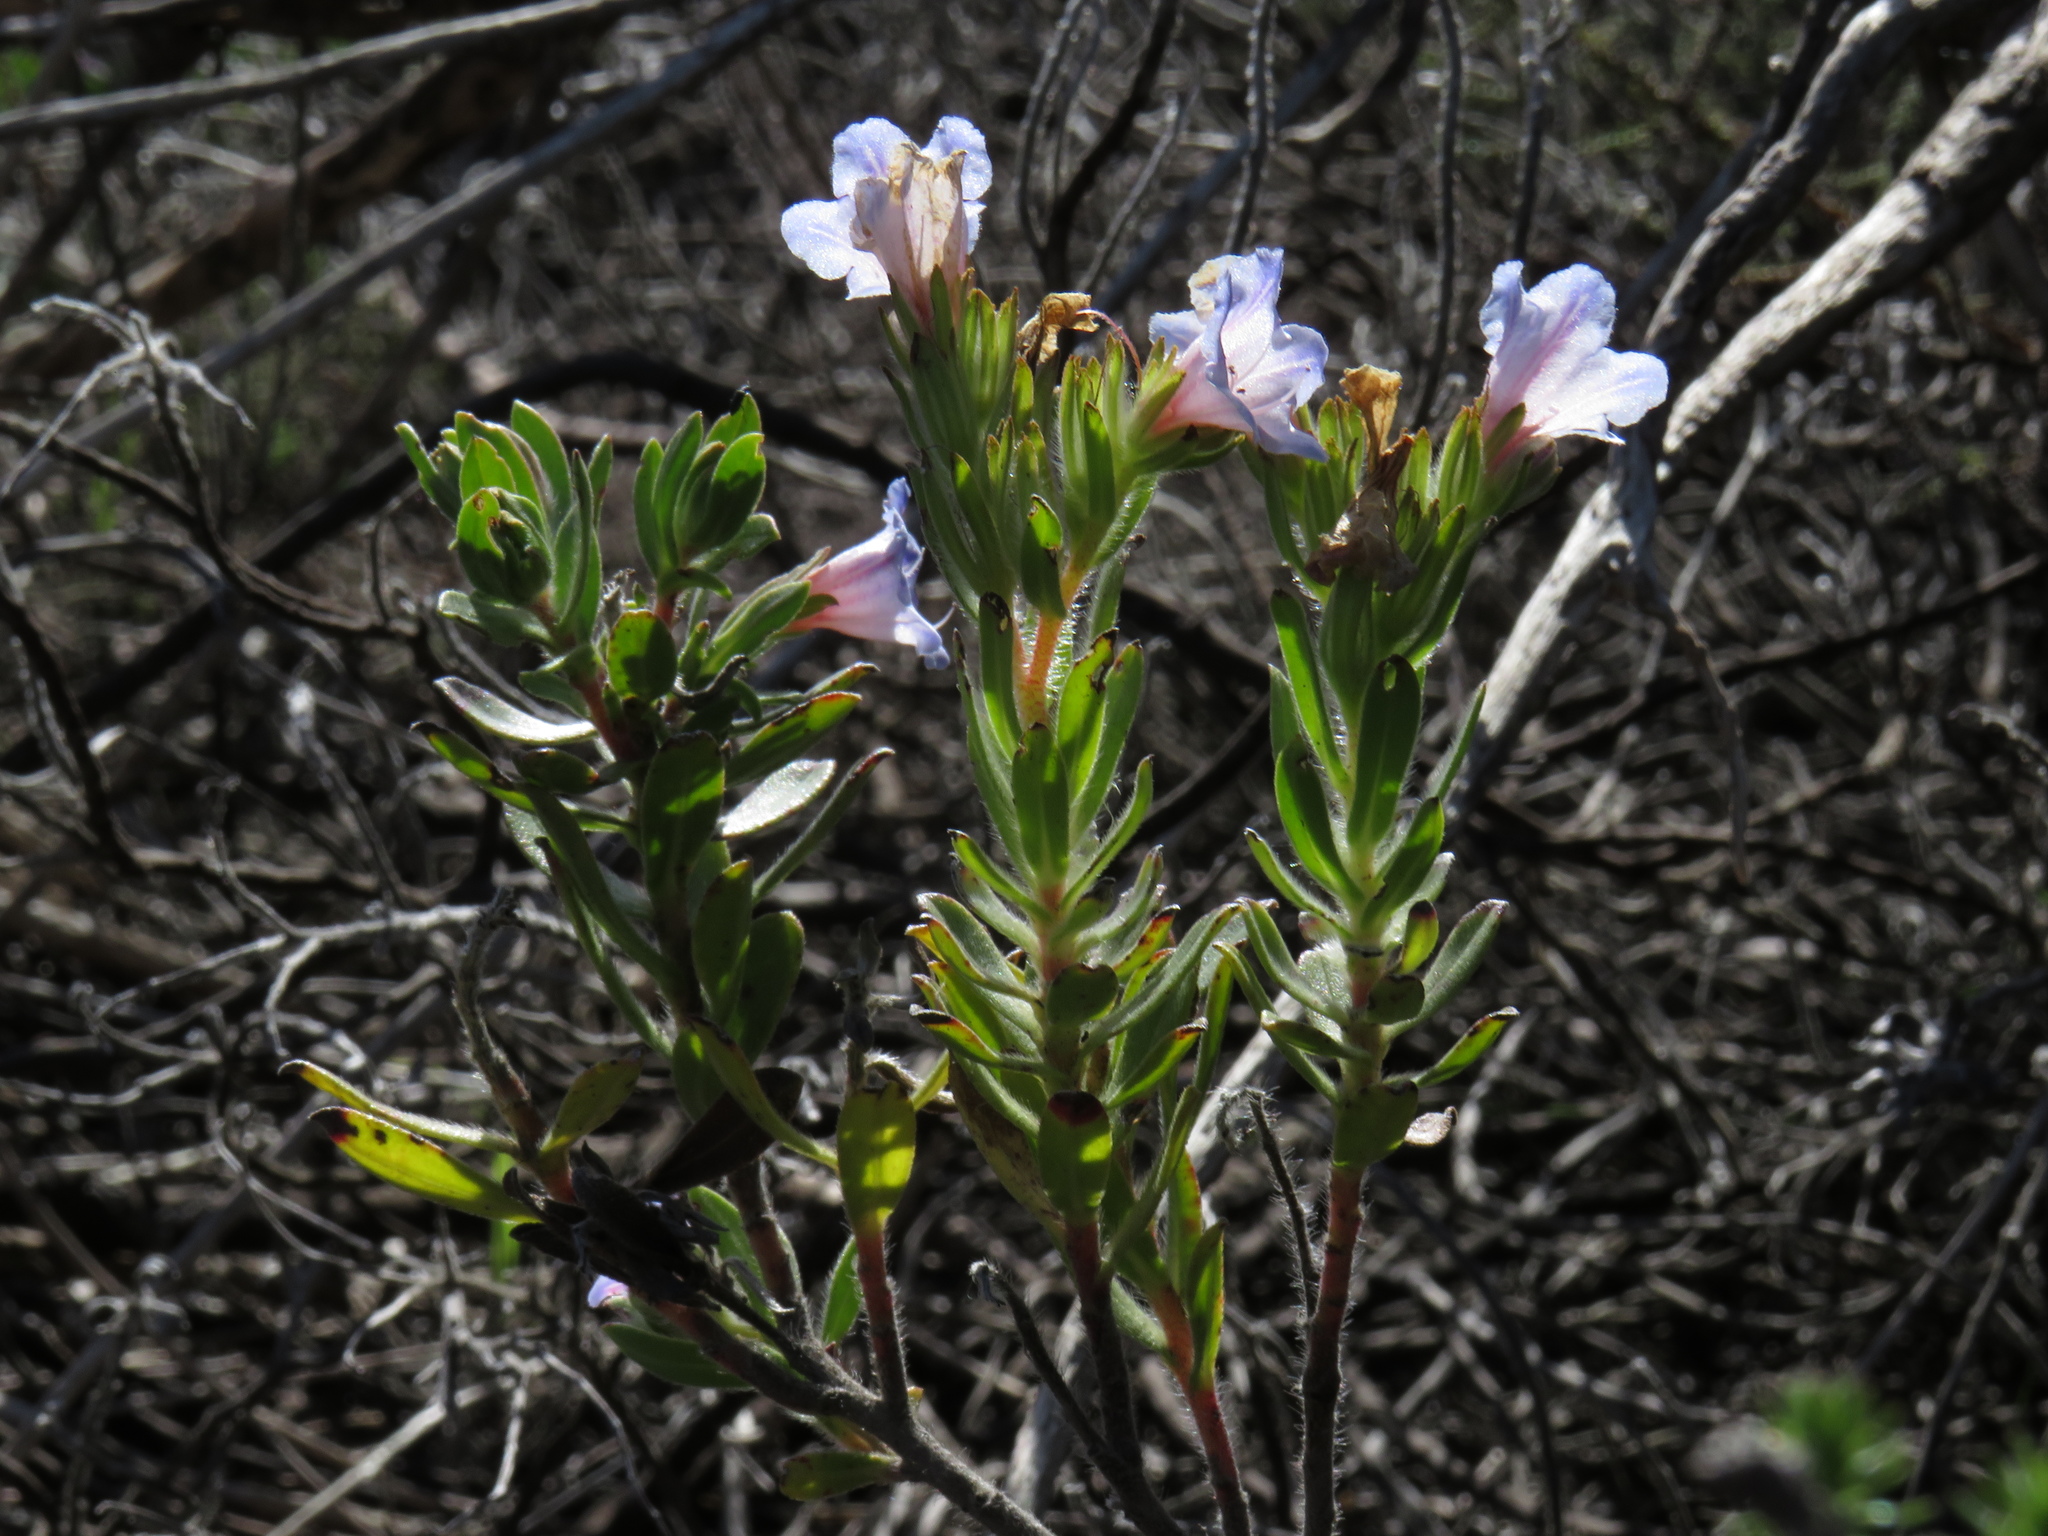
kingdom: Plantae
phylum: Tracheophyta
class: Magnoliopsida
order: Boraginales
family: Boraginaceae
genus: Lobostemon
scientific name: Lobostemon fruticosus
